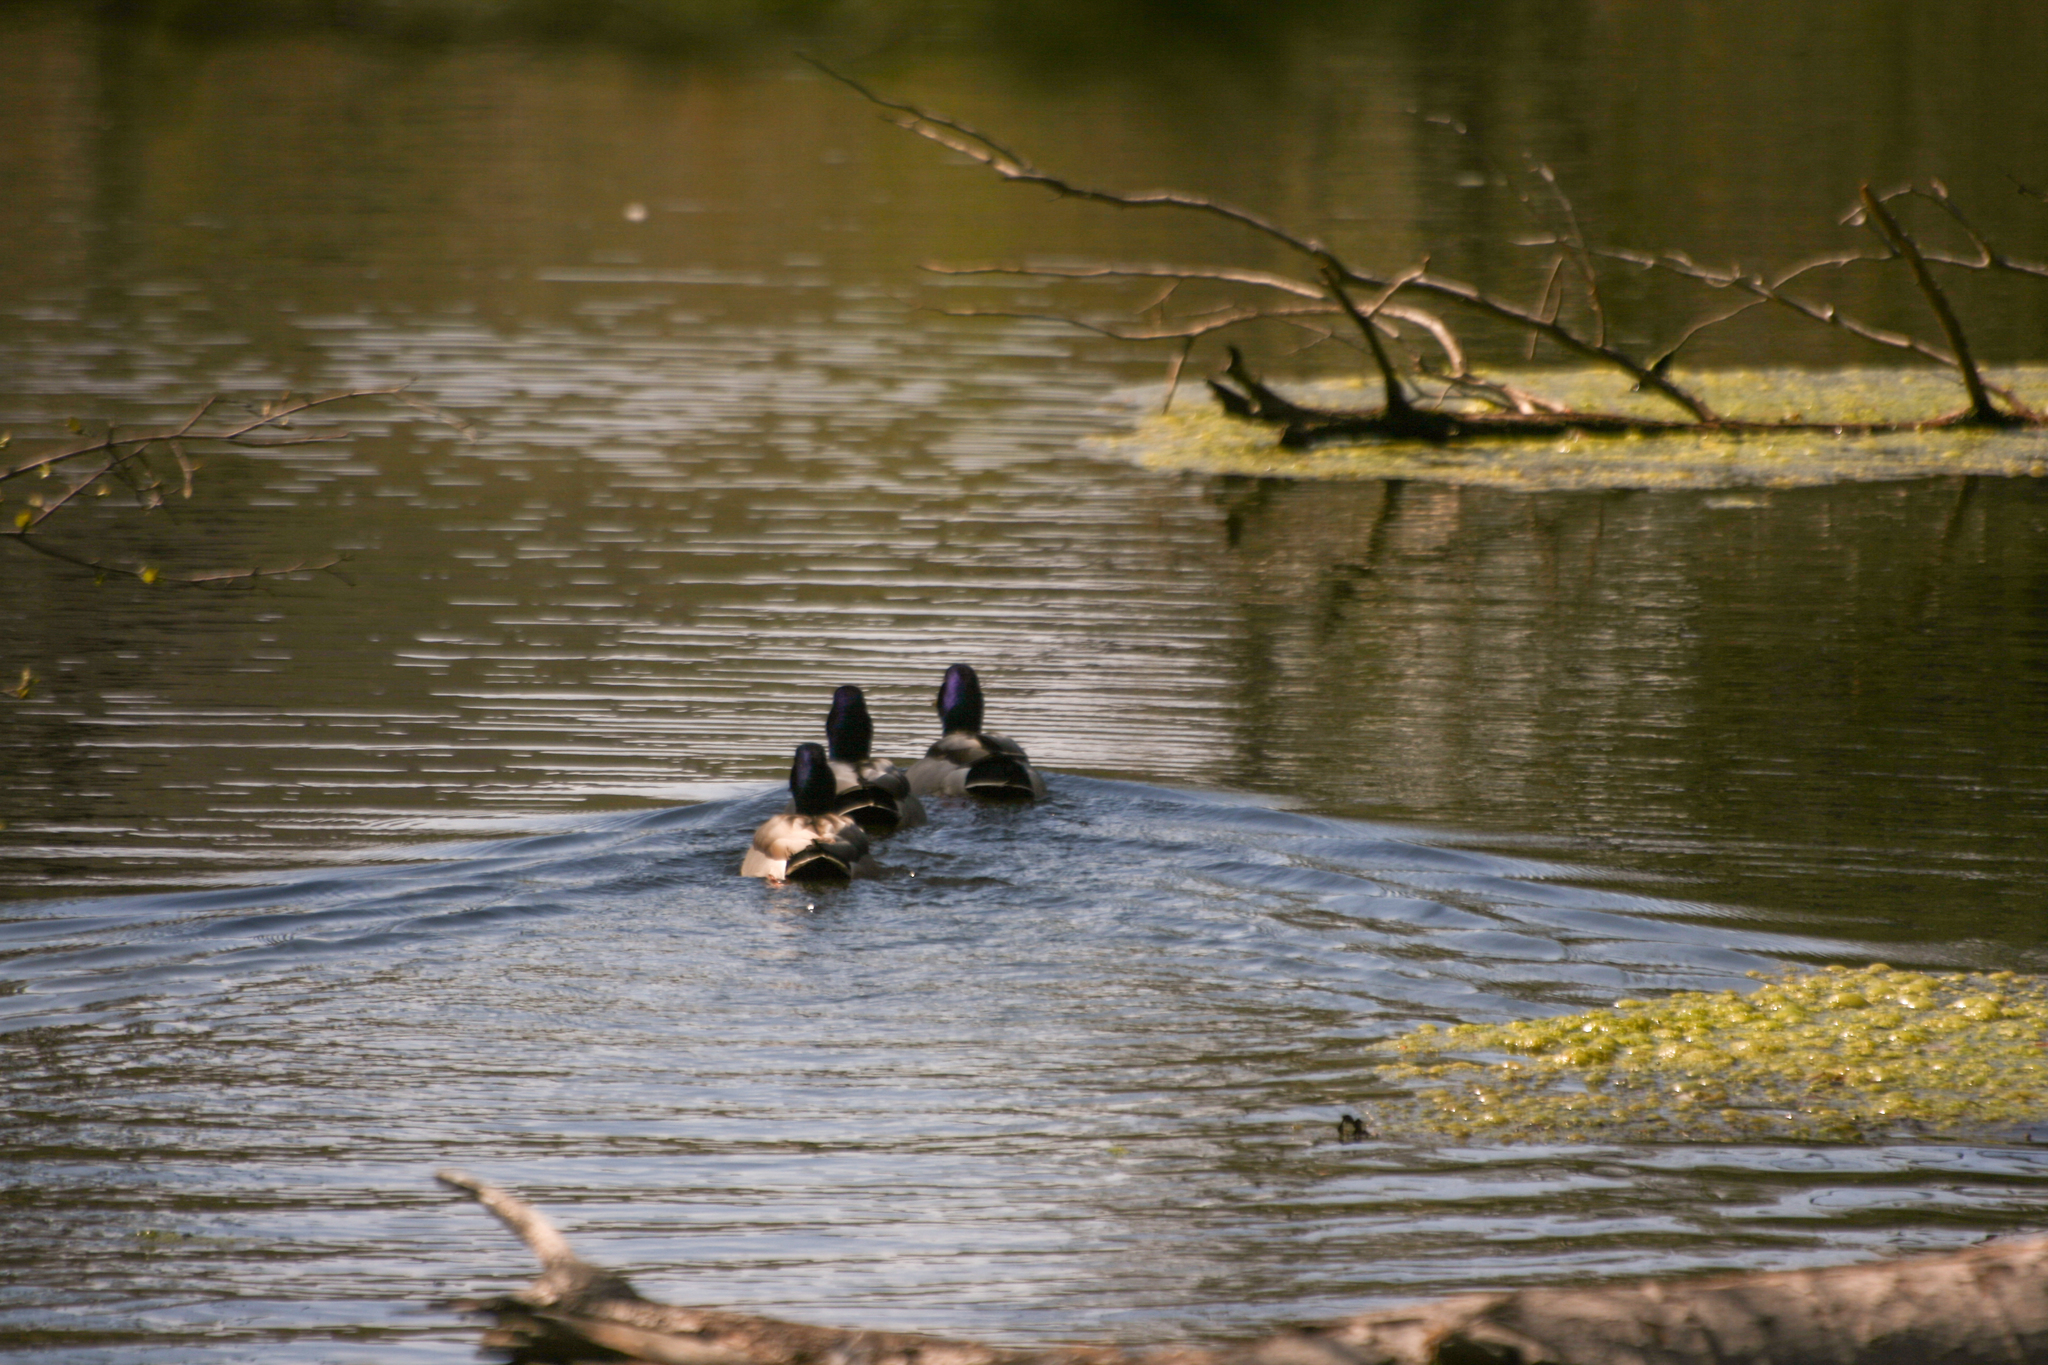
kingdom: Animalia
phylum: Chordata
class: Aves
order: Anseriformes
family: Anatidae
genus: Anas
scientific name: Anas platyrhynchos
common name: Mallard
